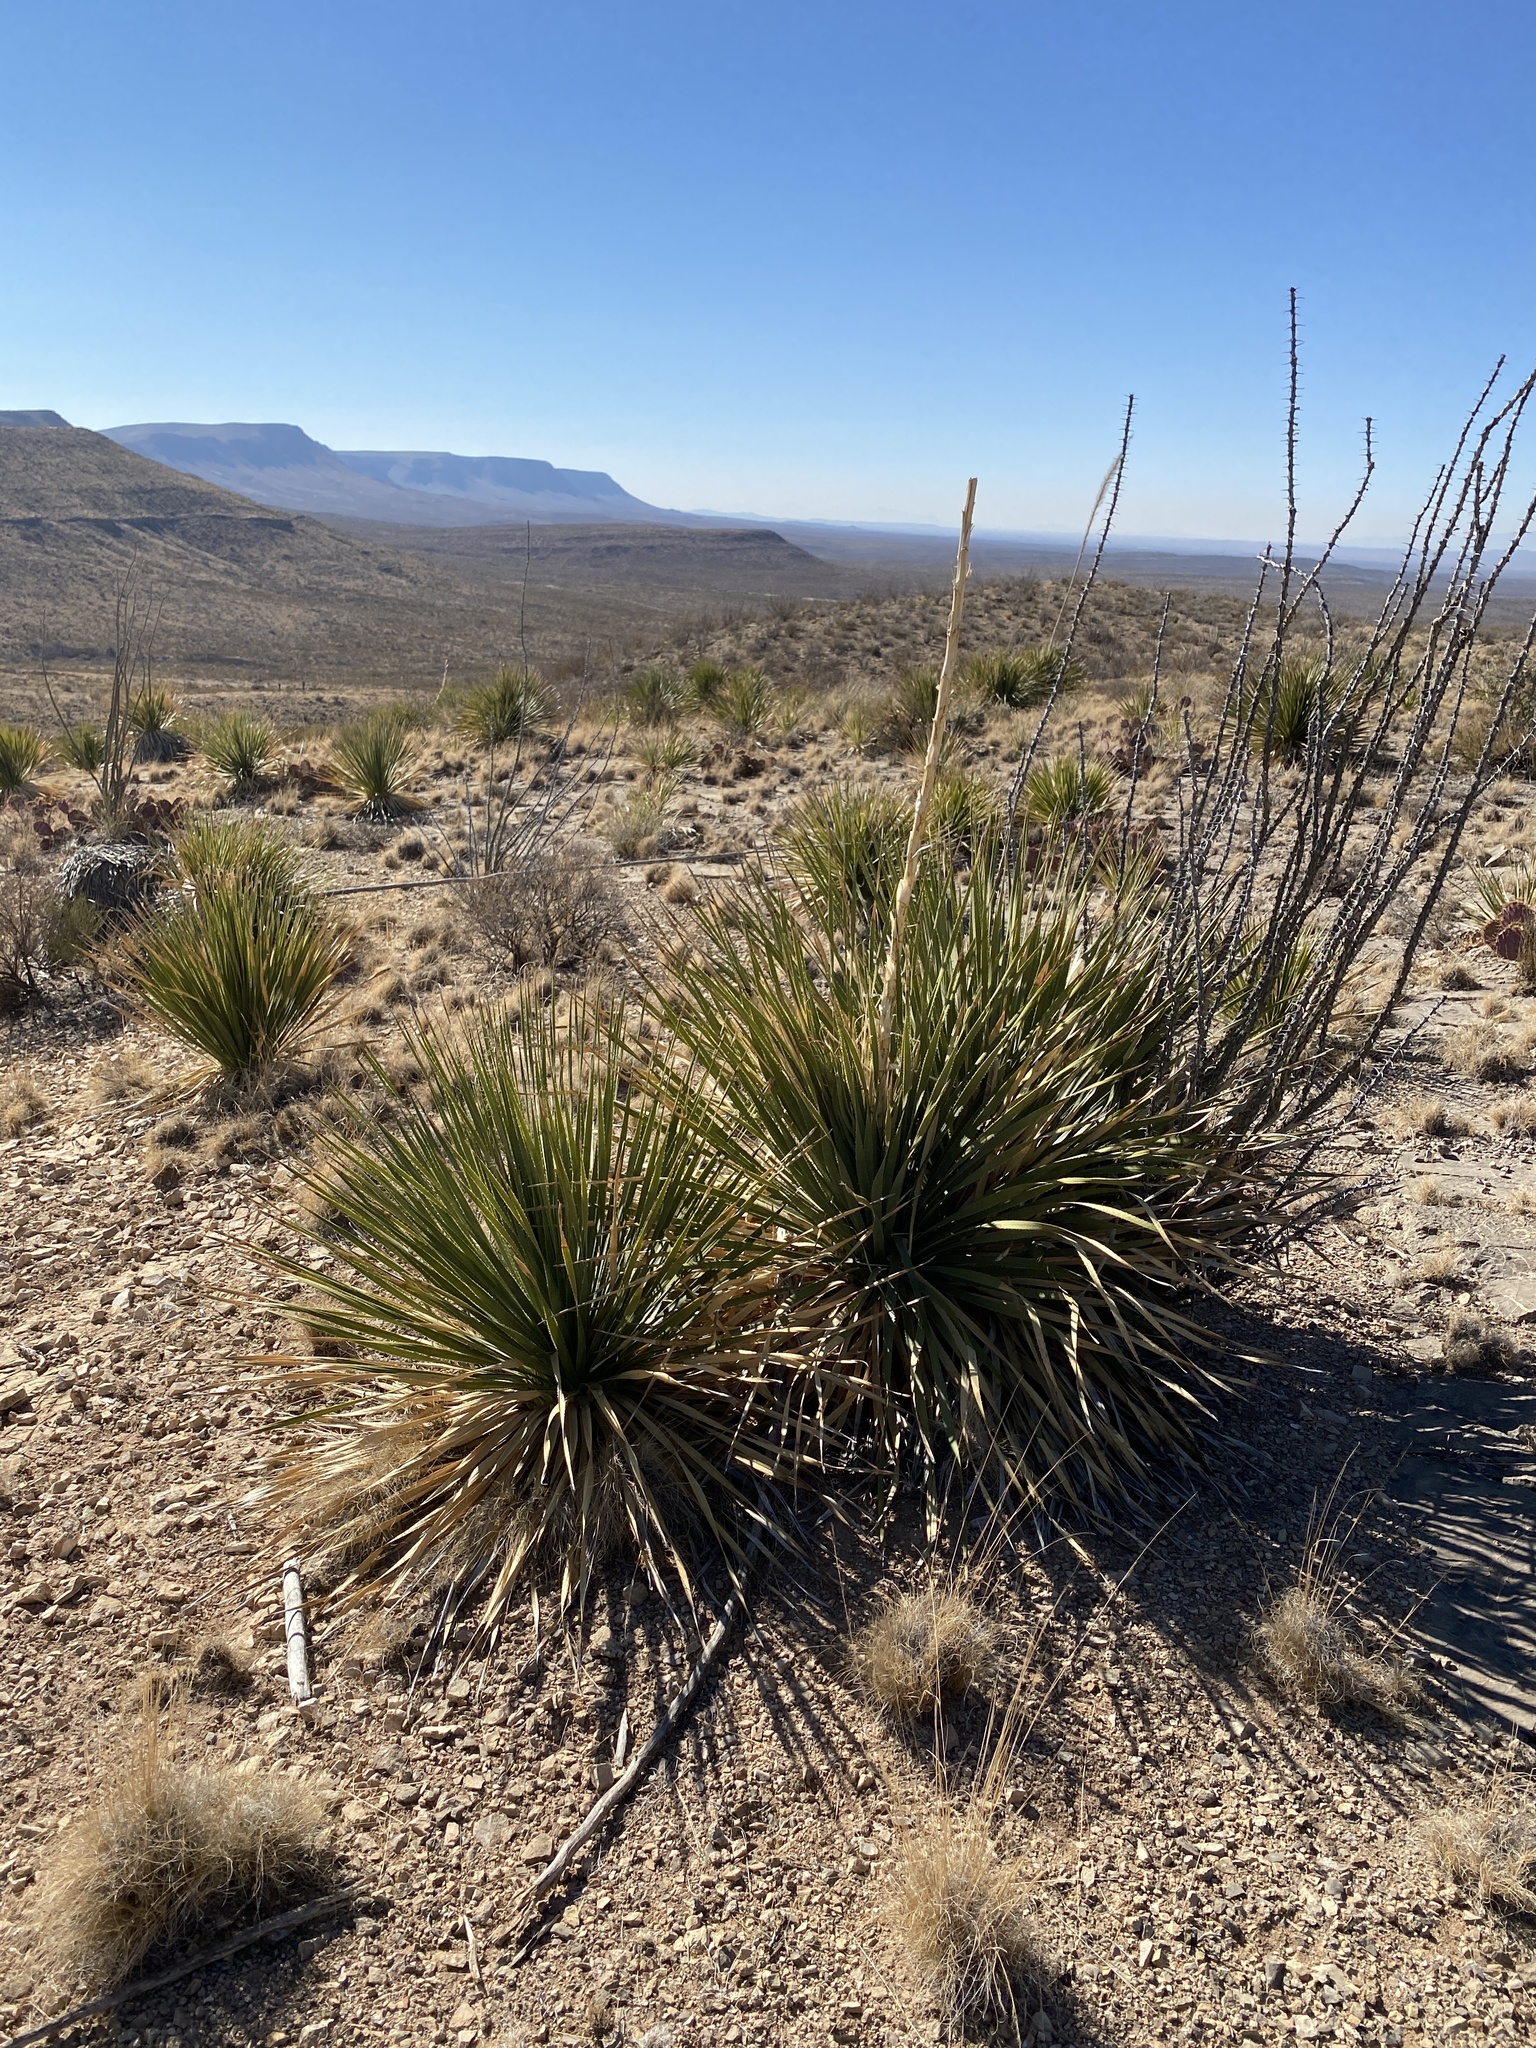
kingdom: Plantae
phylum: Tracheophyta
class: Liliopsida
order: Asparagales
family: Asparagaceae
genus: Dasylirion
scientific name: Dasylirion wheeleri
